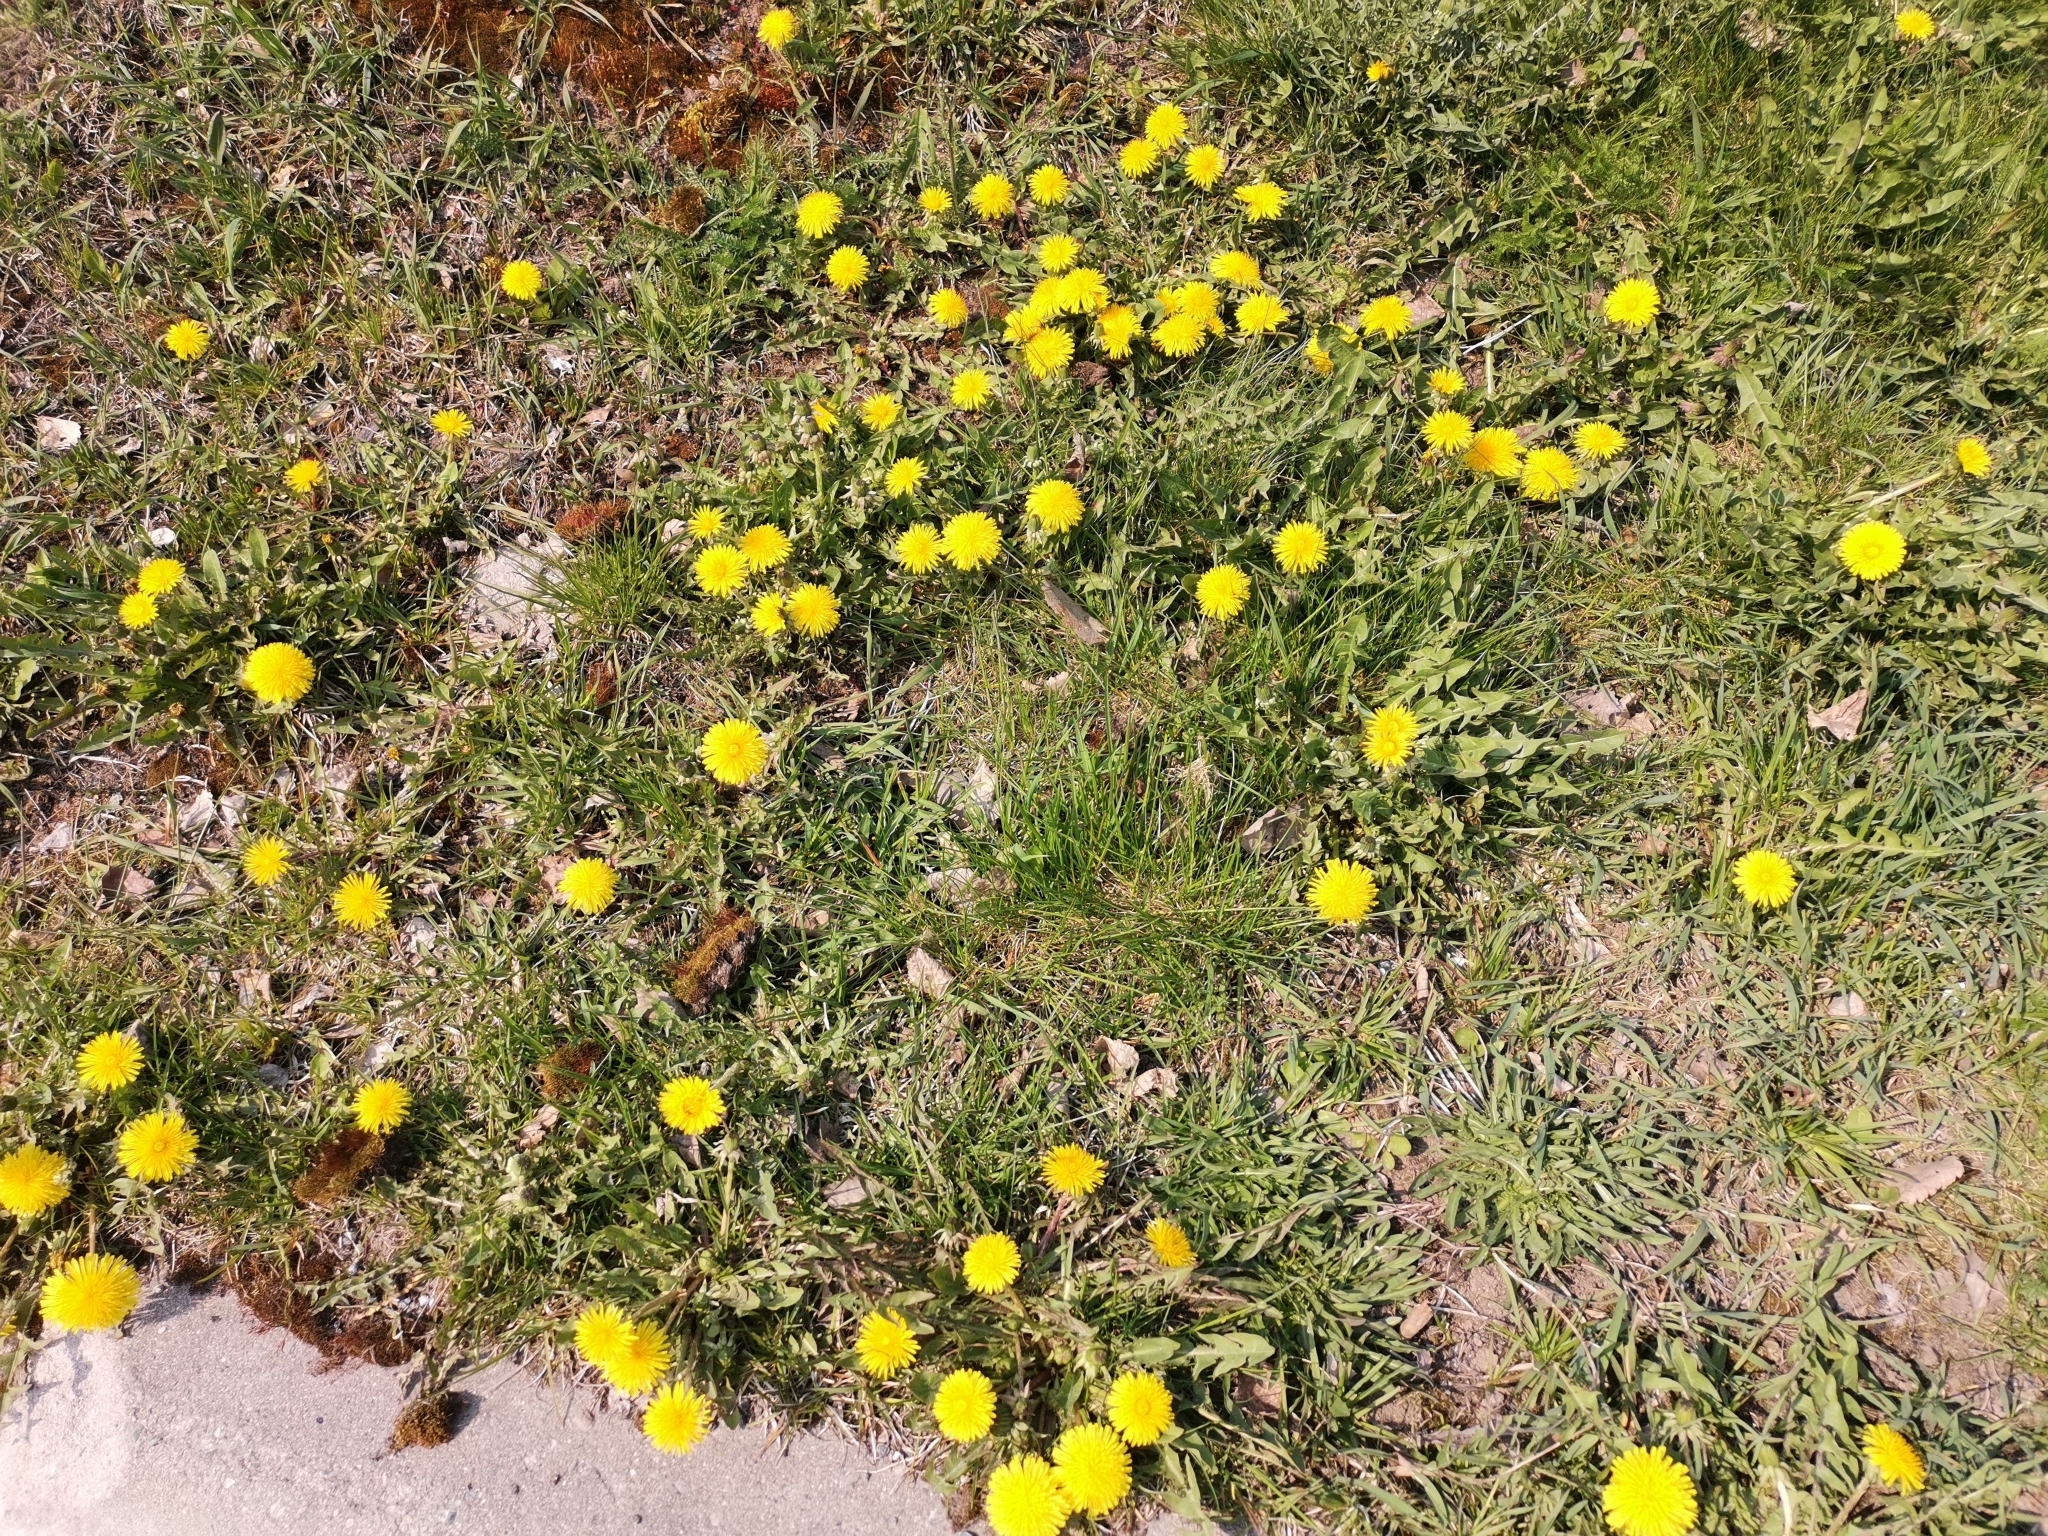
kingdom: Plantae
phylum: Tracheophyta
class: Magnoliopsida
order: Asterales
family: Asteraceae
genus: Taraxacum
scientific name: Taraxacum officinale
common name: Common dandelion
